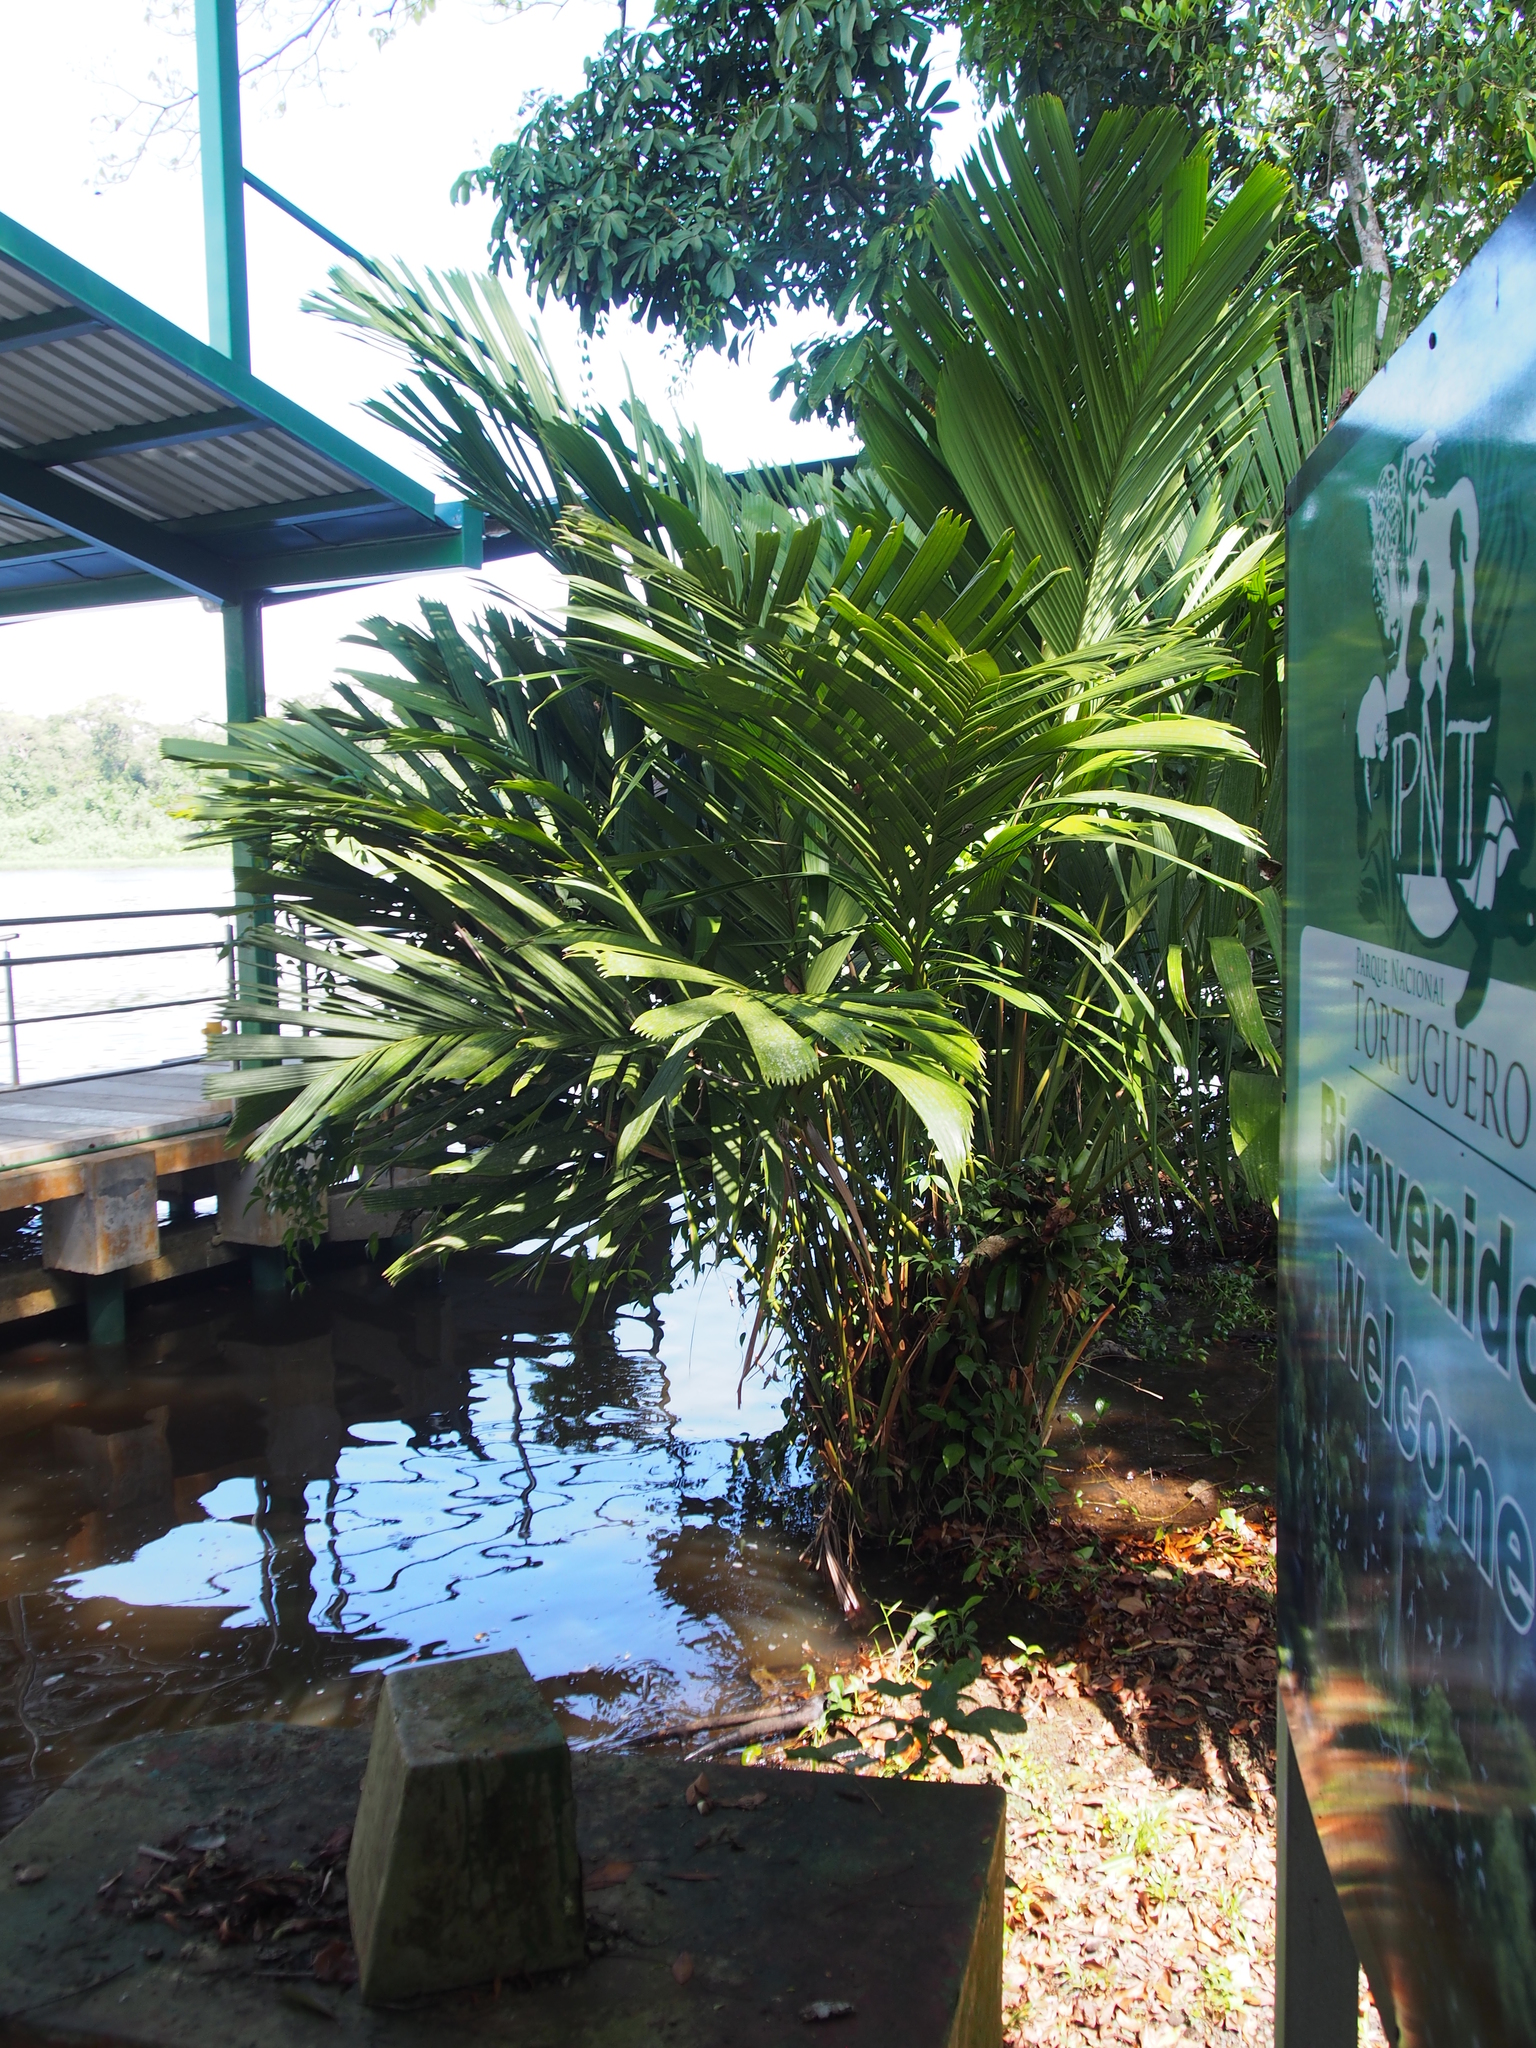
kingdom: Plantae
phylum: Tracheophyta
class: Liliopsida
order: Arecales
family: Arecaceae
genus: Manicaria
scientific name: Manicaria saccifera
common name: Sea coconut
